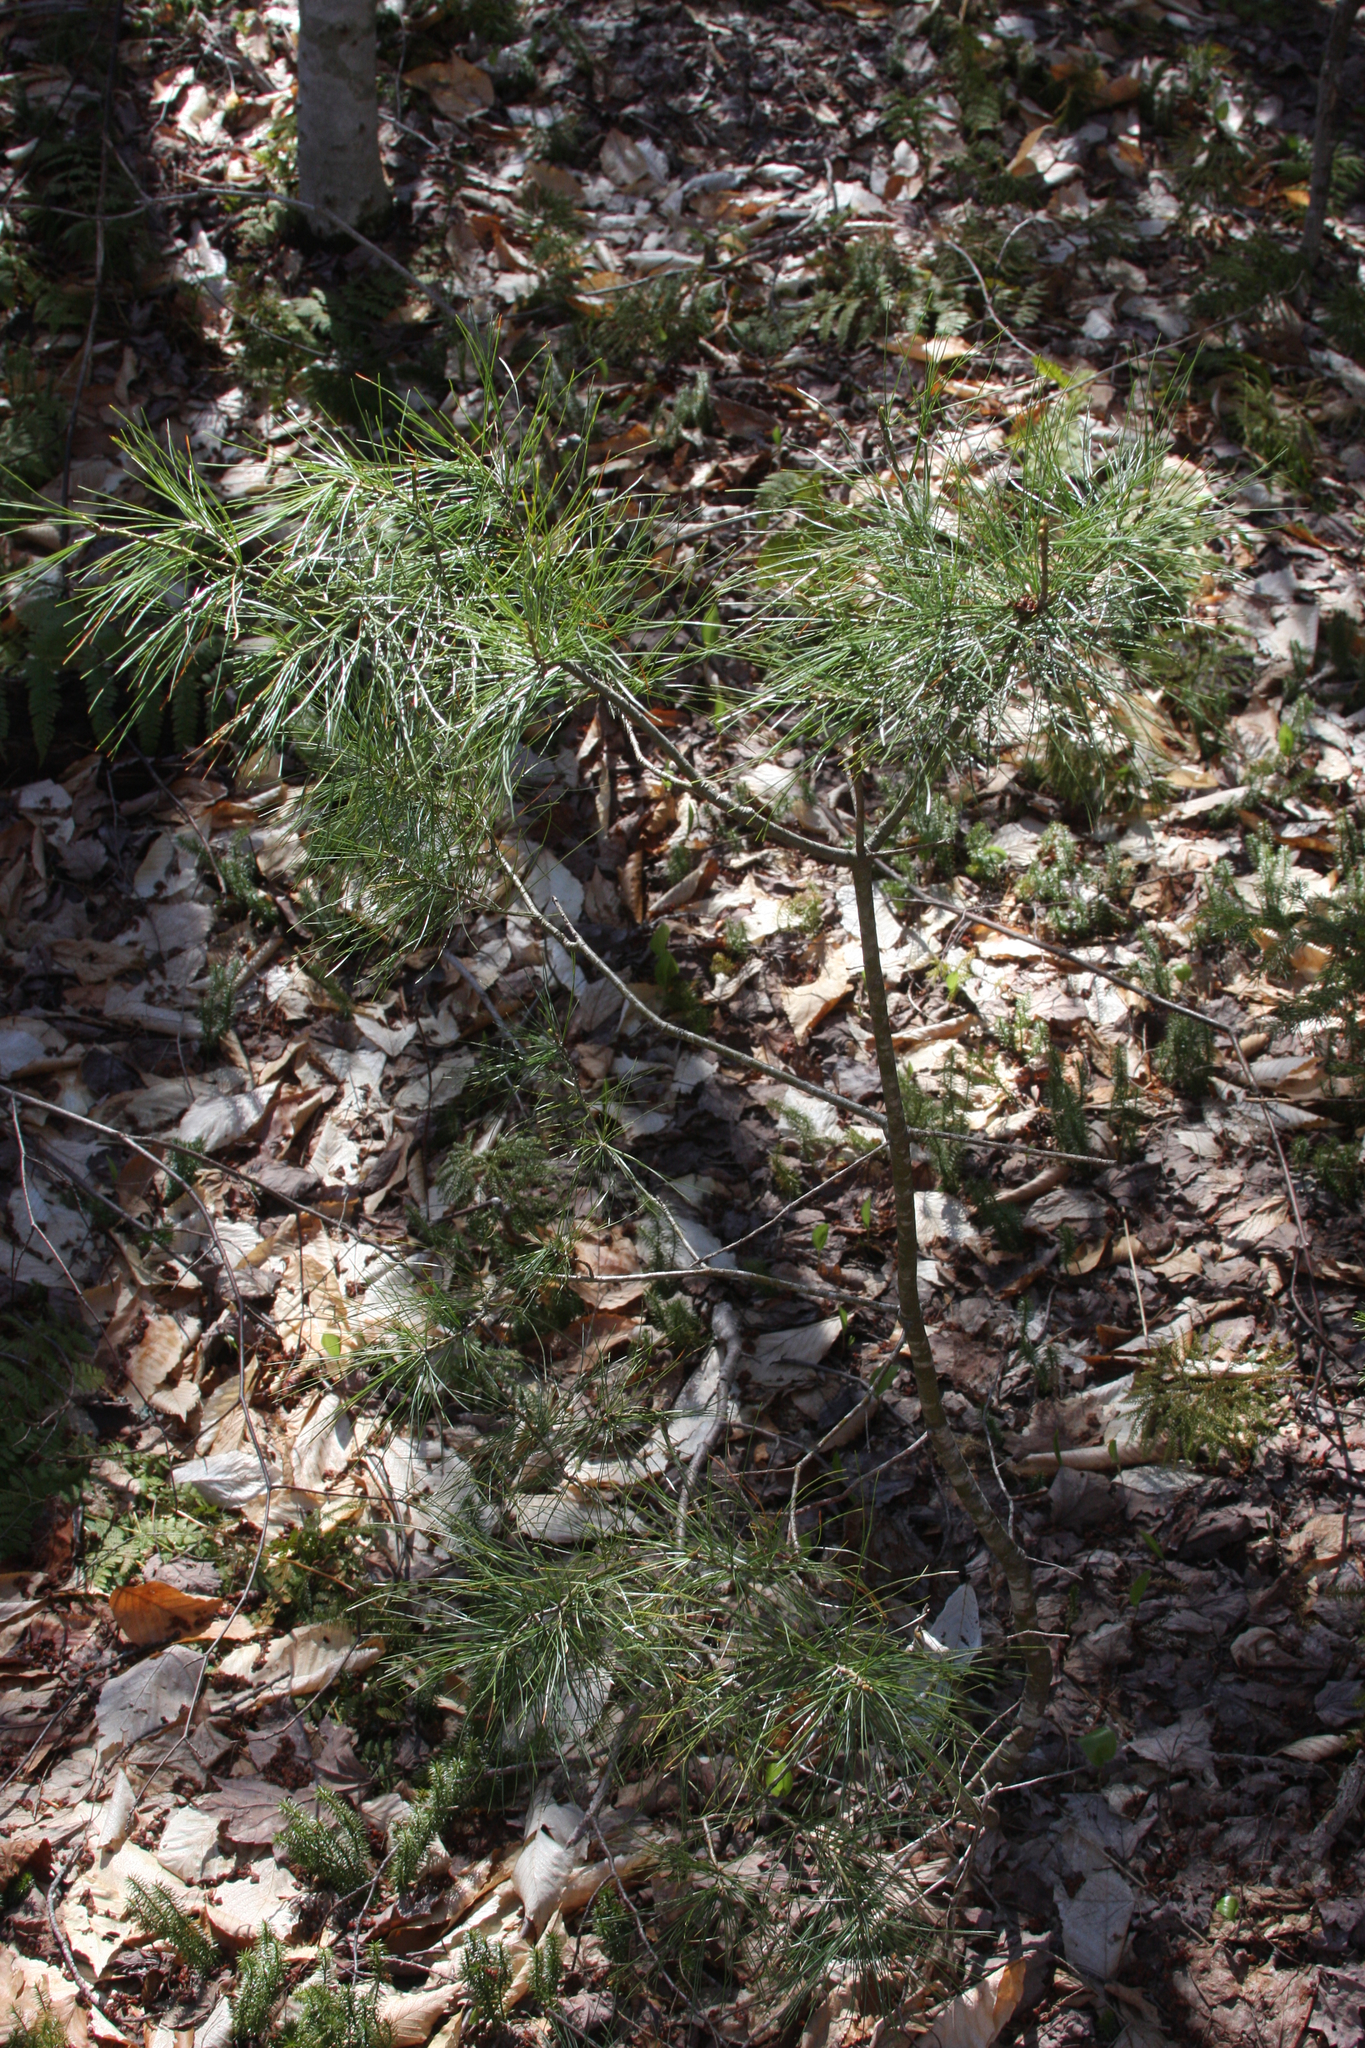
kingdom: Plantae
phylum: Tracheophyta
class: Pinopsida
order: Pinales
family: Pinaceae
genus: Pinus
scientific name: Pinus strobus
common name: Weymouth pine
